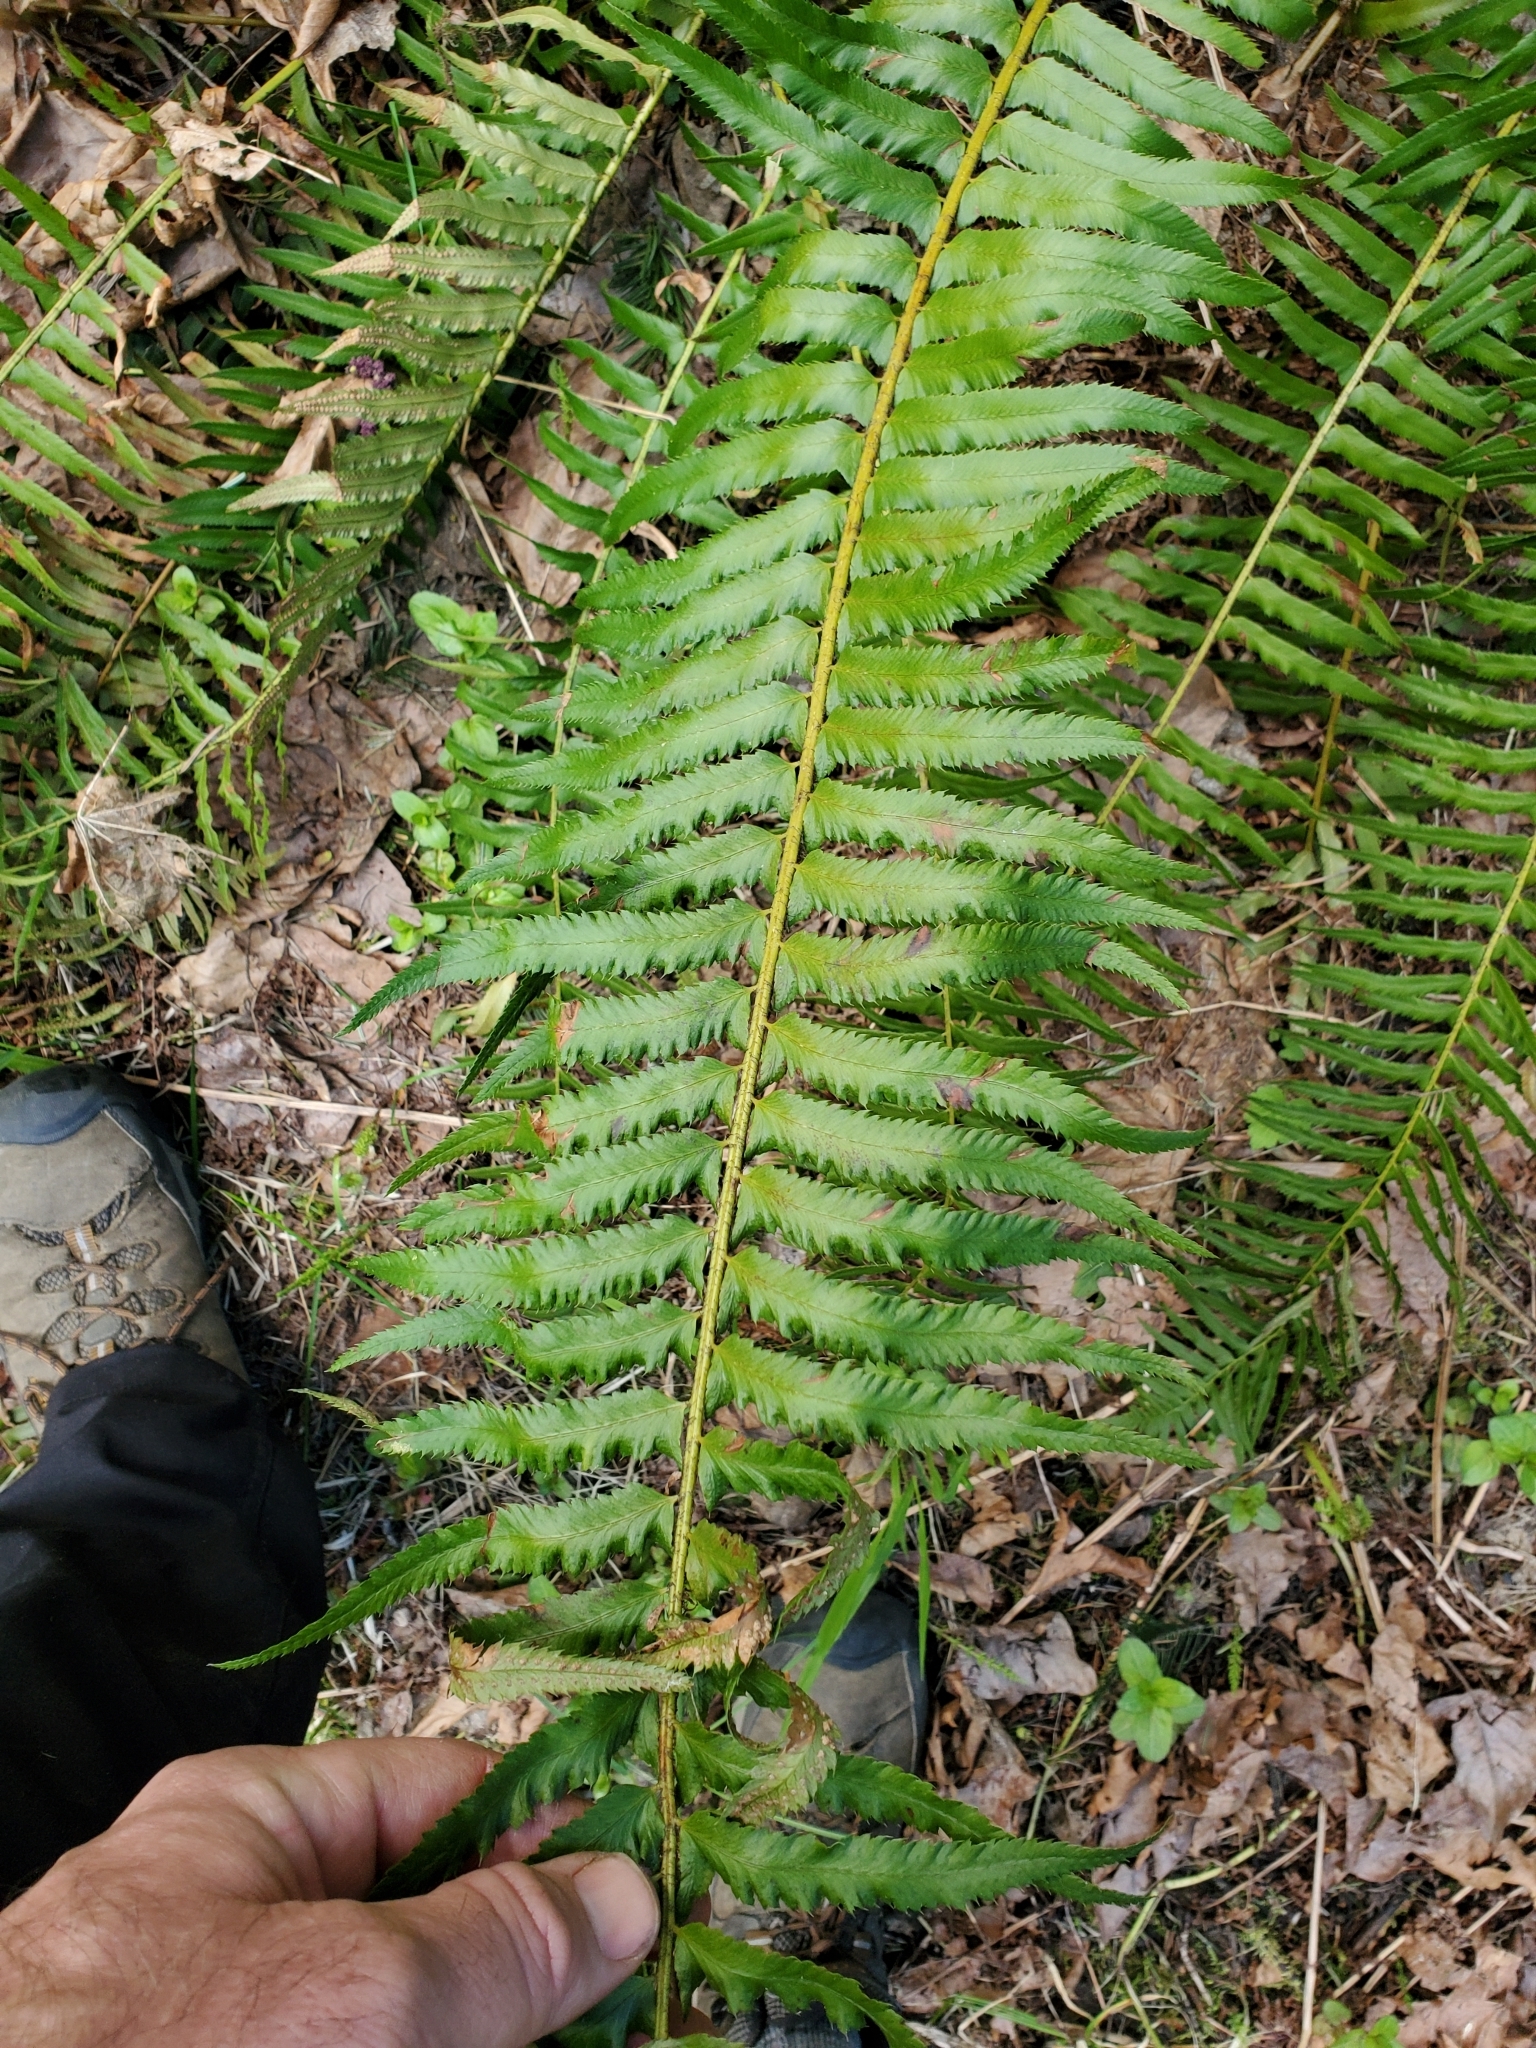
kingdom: Plantae
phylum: Tracheophyta
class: Polypodiopsida
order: Polypodiales
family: Dryopteridaceae
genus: Polystichum
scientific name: Polystichum munitum
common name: Western sword-fern
